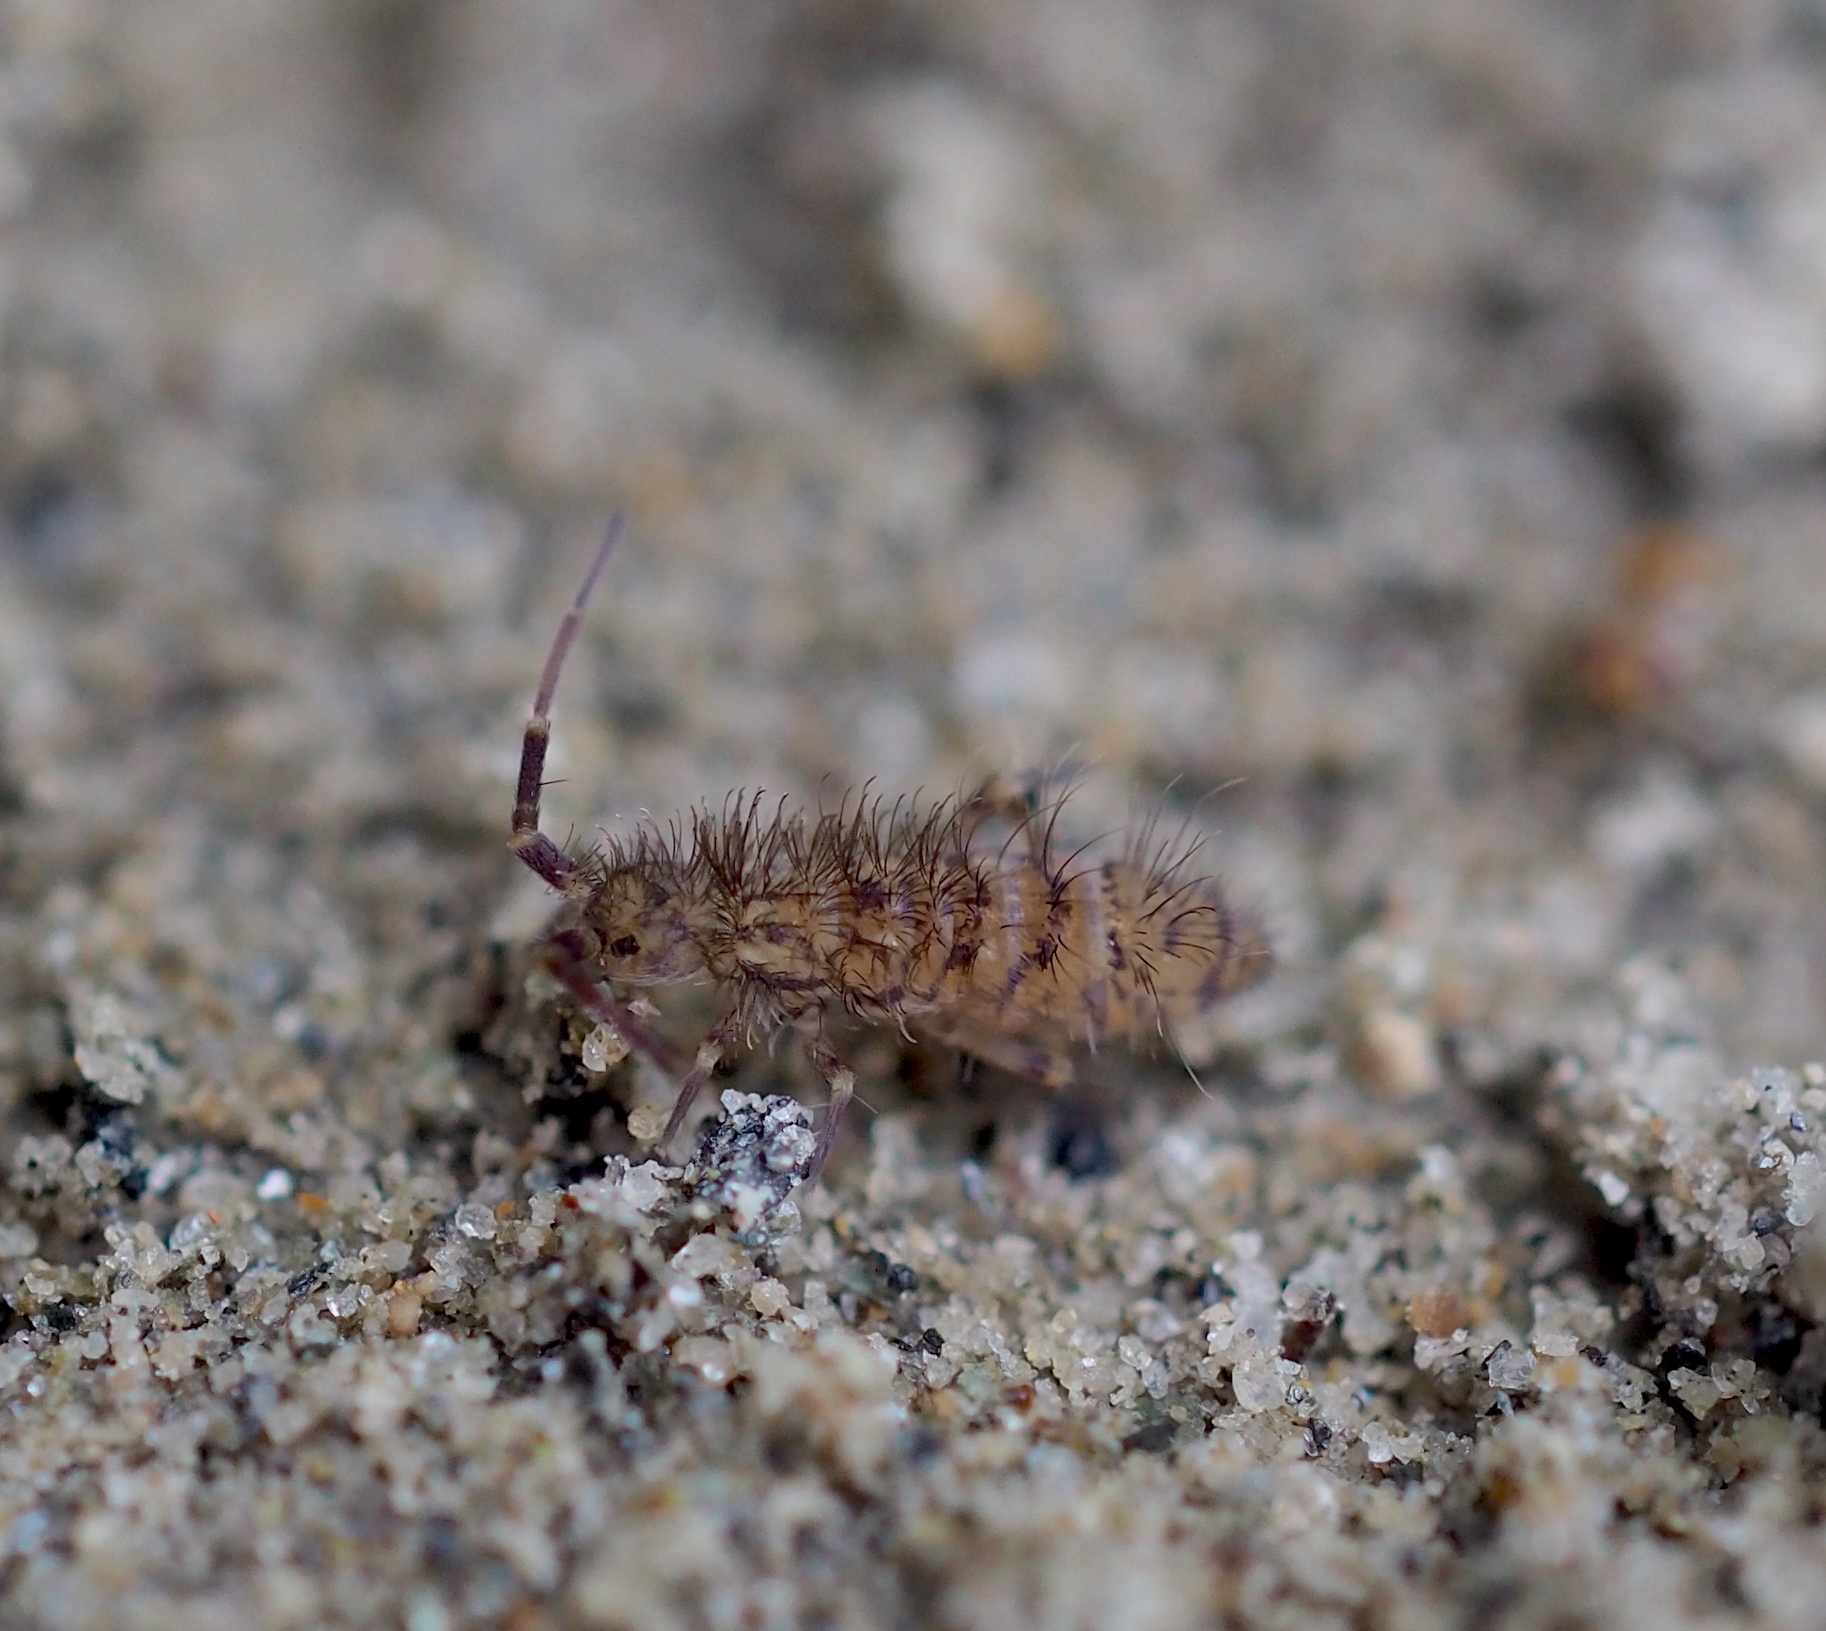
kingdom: Animalia
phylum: Arthropoda
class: Collembola
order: Entomobryomorpha
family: Orchesellidae
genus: Orchesella
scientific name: Orchesella villosa
